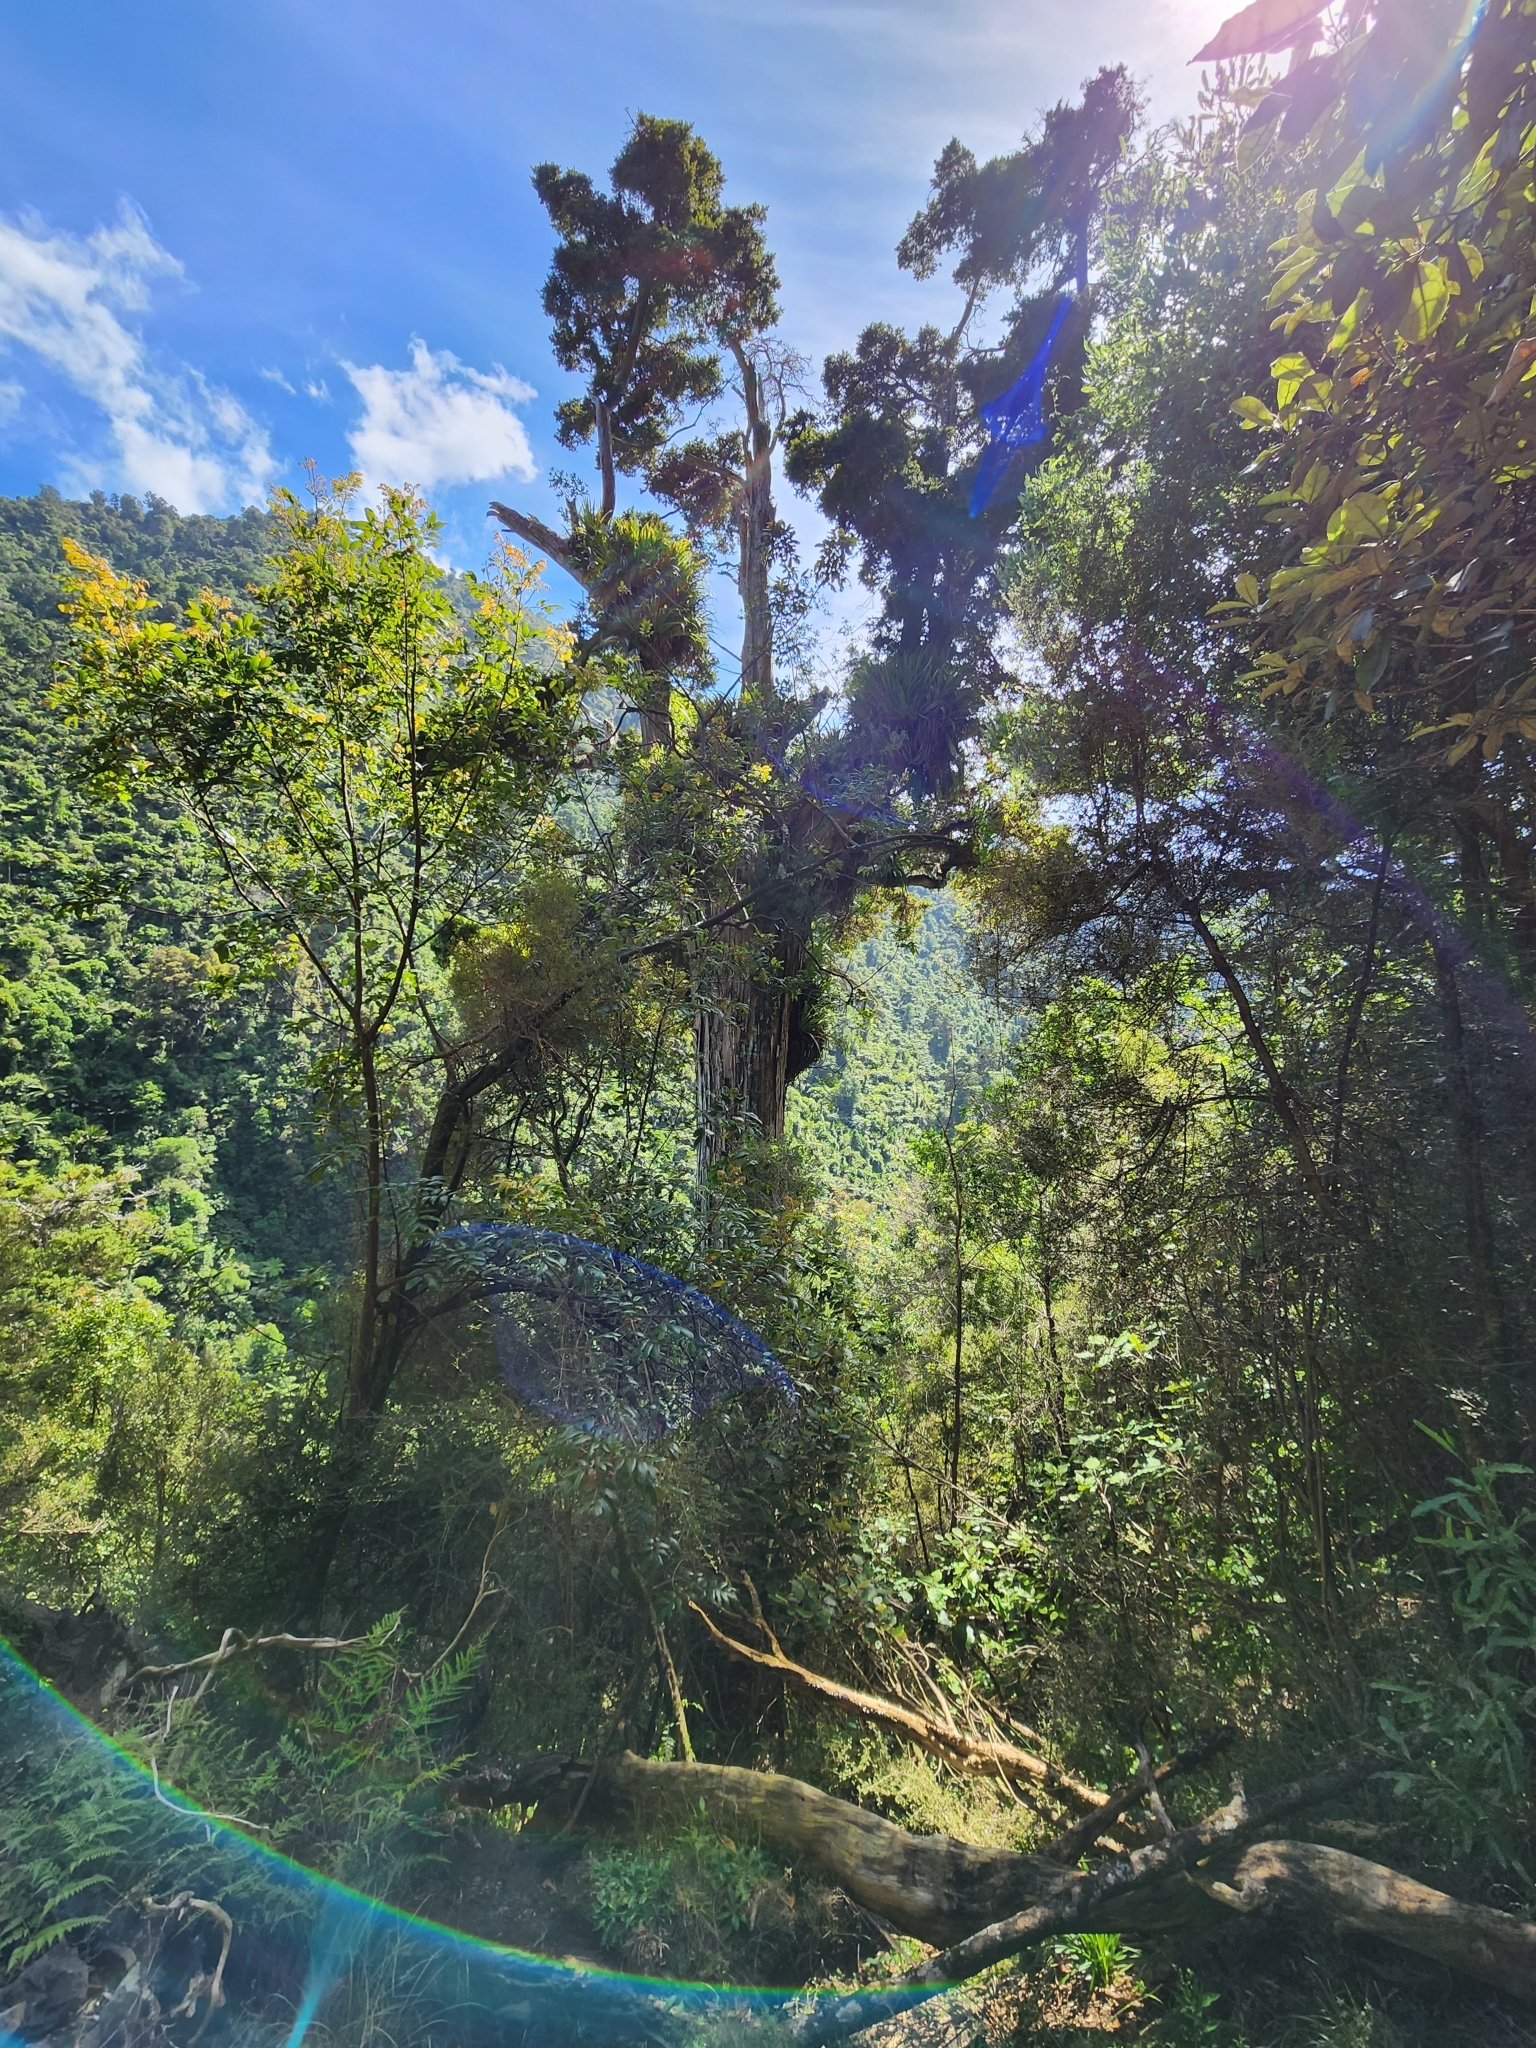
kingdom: Plantae
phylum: Tracheophyta
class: Liliopsida
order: Asparagales
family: Asteliaceae
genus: Astelia
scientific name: Astelia hastata
